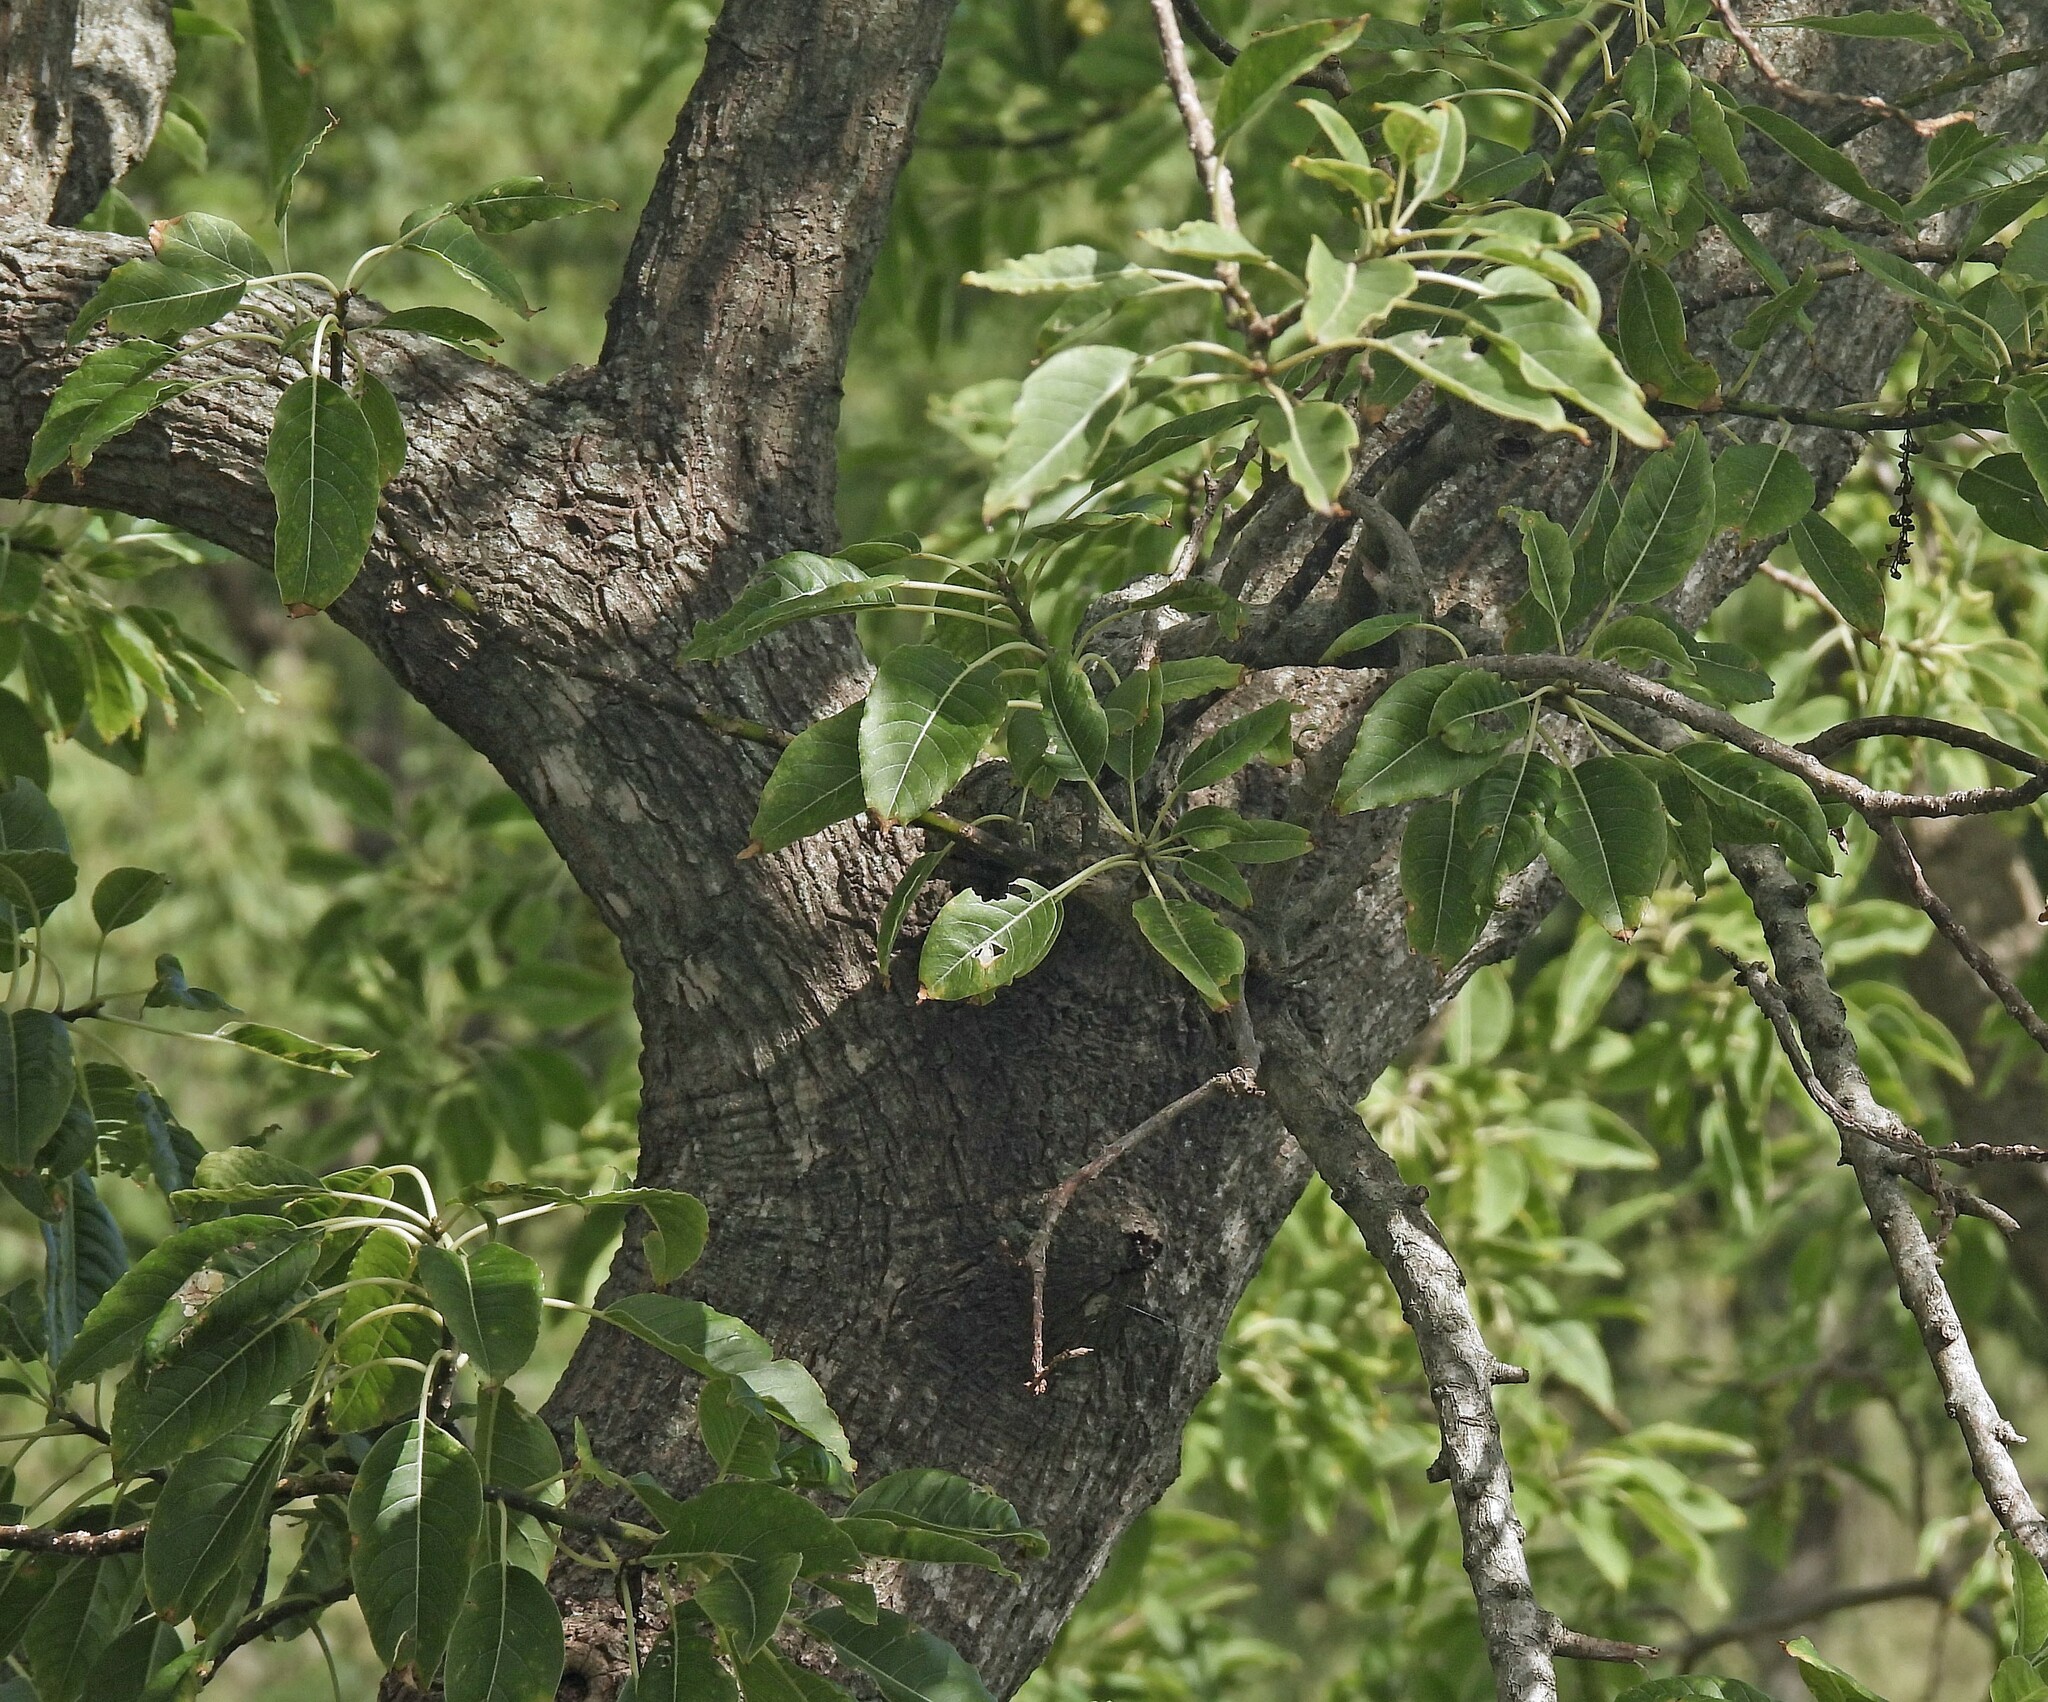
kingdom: Plantae
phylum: Tracheophyta
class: Magnoliopsida
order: Caryophyllales
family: Phytolaccaceae
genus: Phytolacca
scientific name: Phytolacca dioica
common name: Pokeweed
